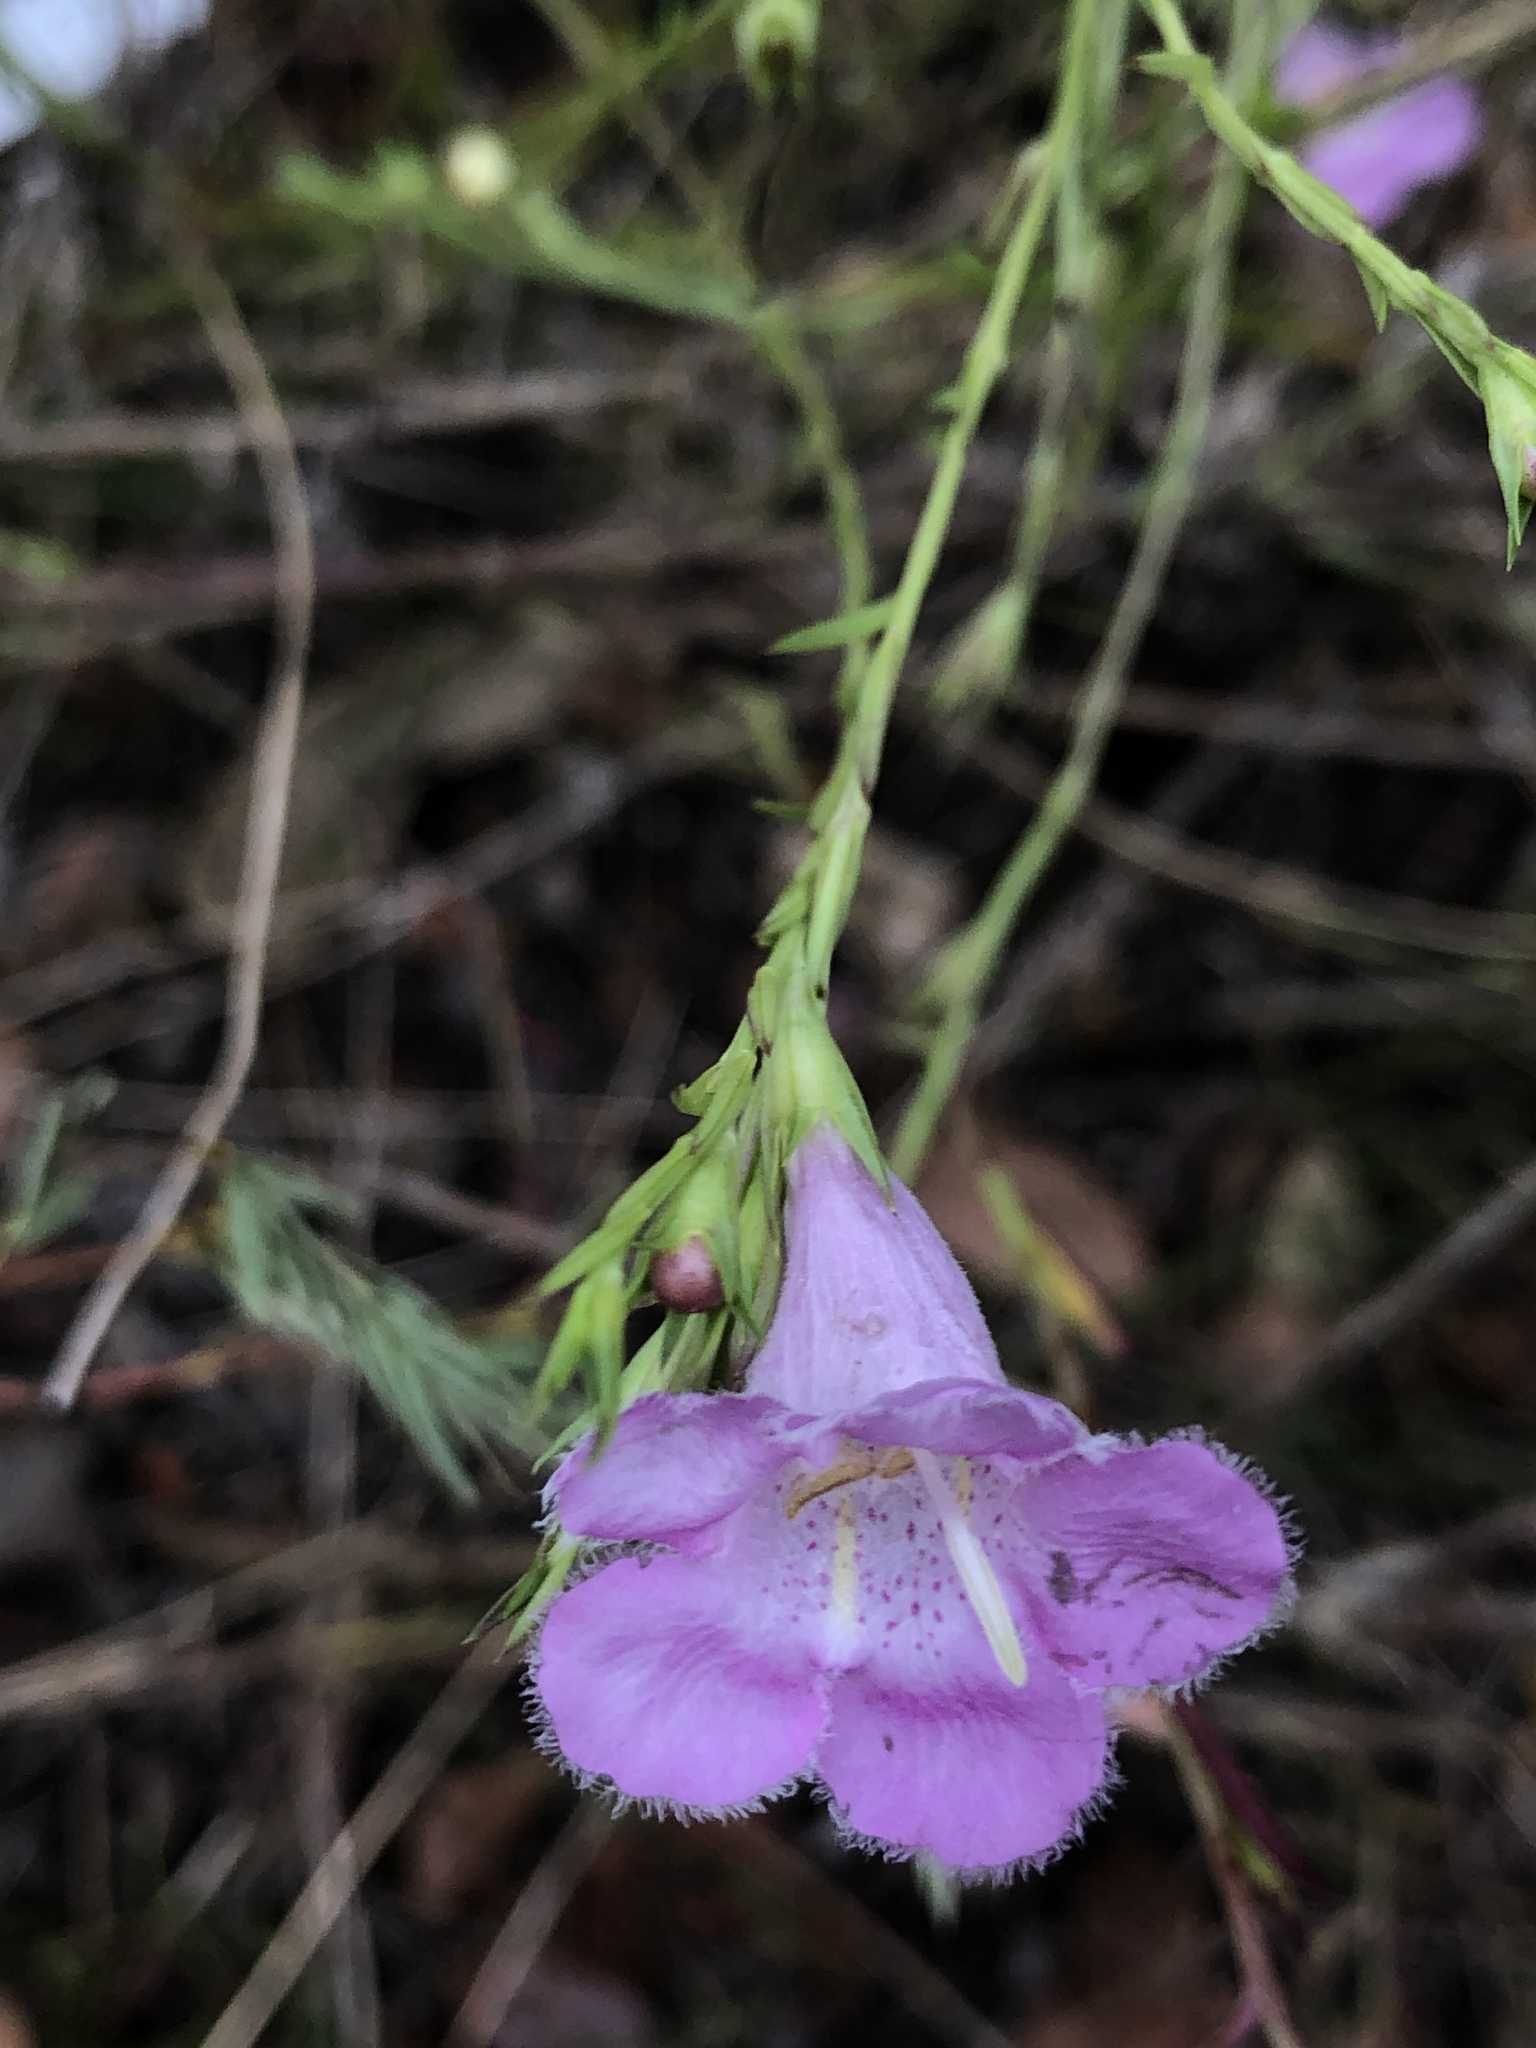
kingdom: Plantae
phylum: Tracheophyta
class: Magnoliopsida
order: Lamiales
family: Orobanchaceae
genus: Agalinis
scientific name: Agalinis heterophylla
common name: Prairie agalinis
